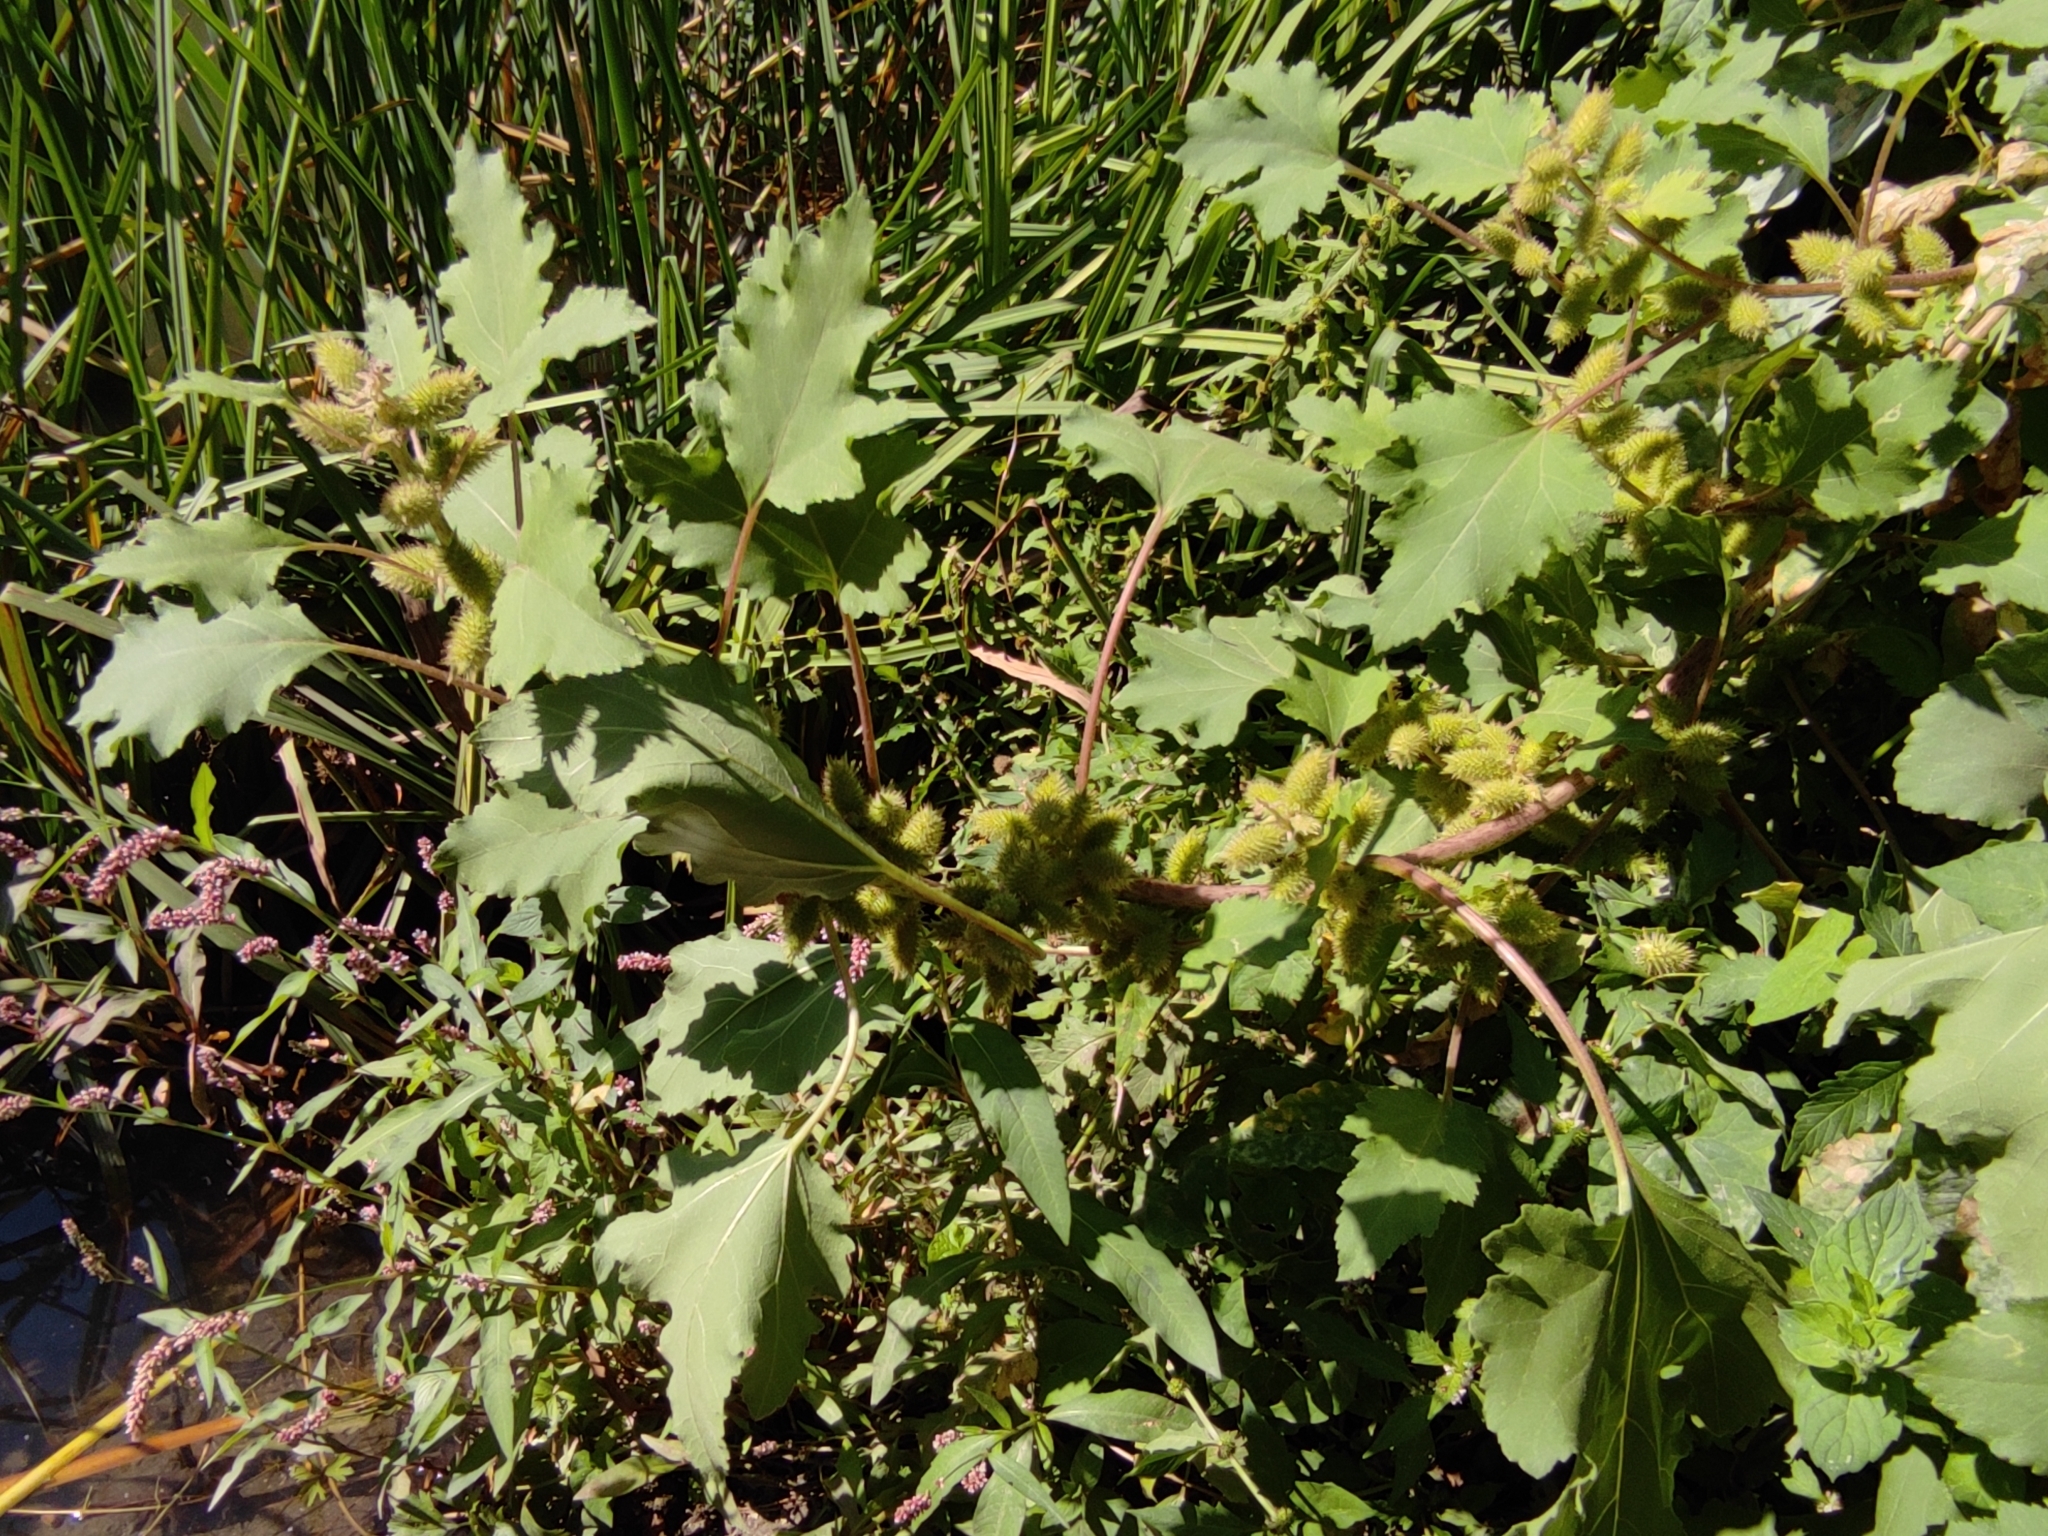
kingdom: Plantae
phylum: Tracheophyta
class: Magnoliopsida
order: Asterales
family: Asteraceae
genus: Xanthium
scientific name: Xanthium orientale
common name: Californian burr
